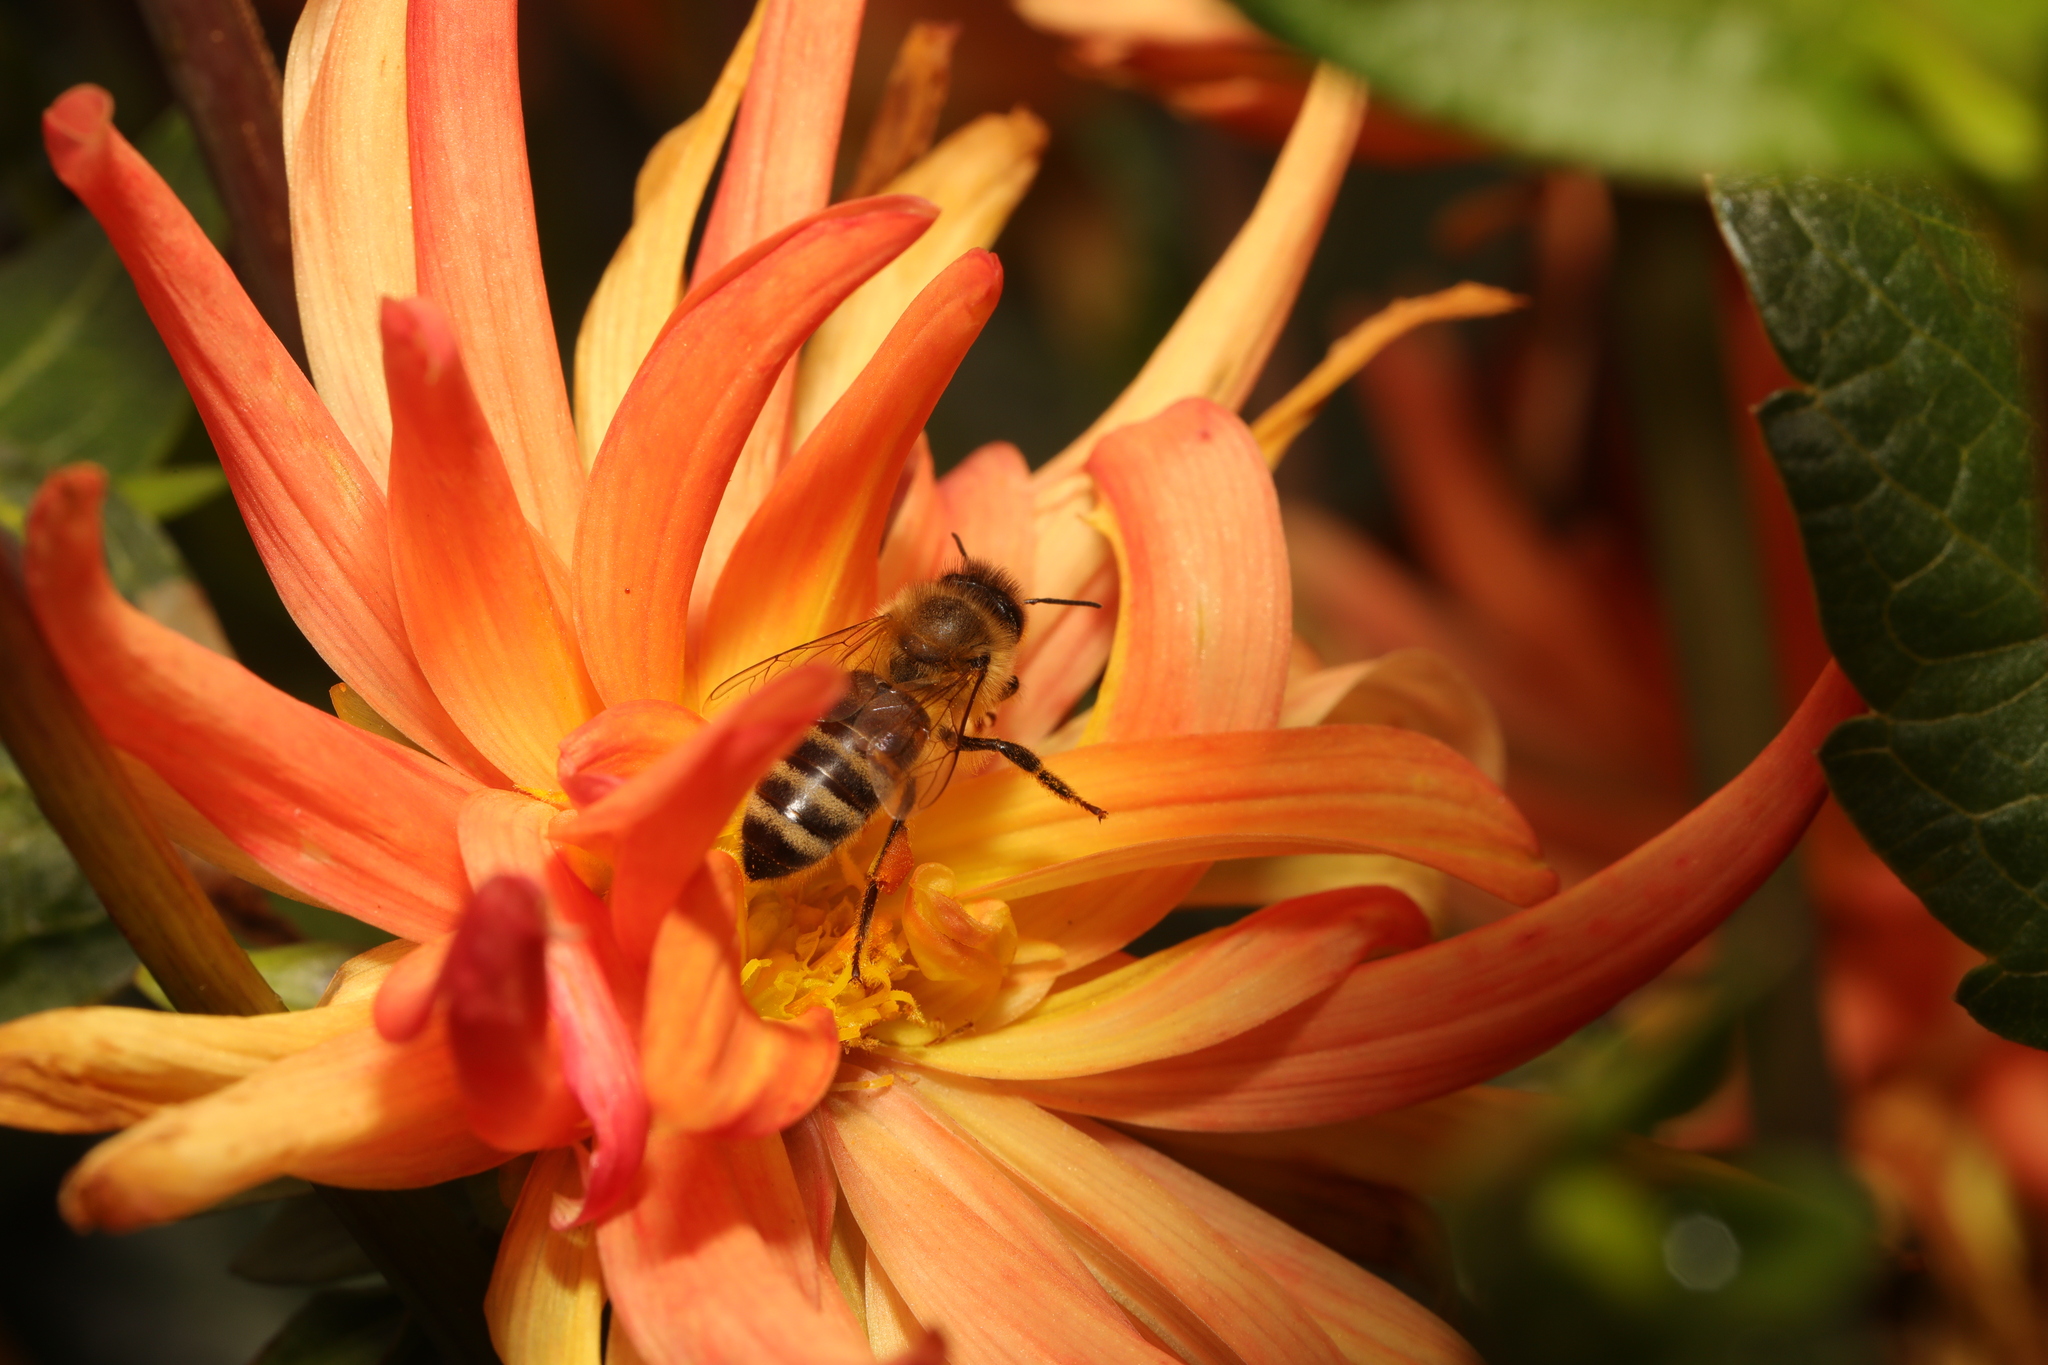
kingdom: Animalia
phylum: Arthropoda
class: Insecta
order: Hymenoptera
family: Apidae
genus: Apis
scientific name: Apis mellifera
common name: Honey bee
